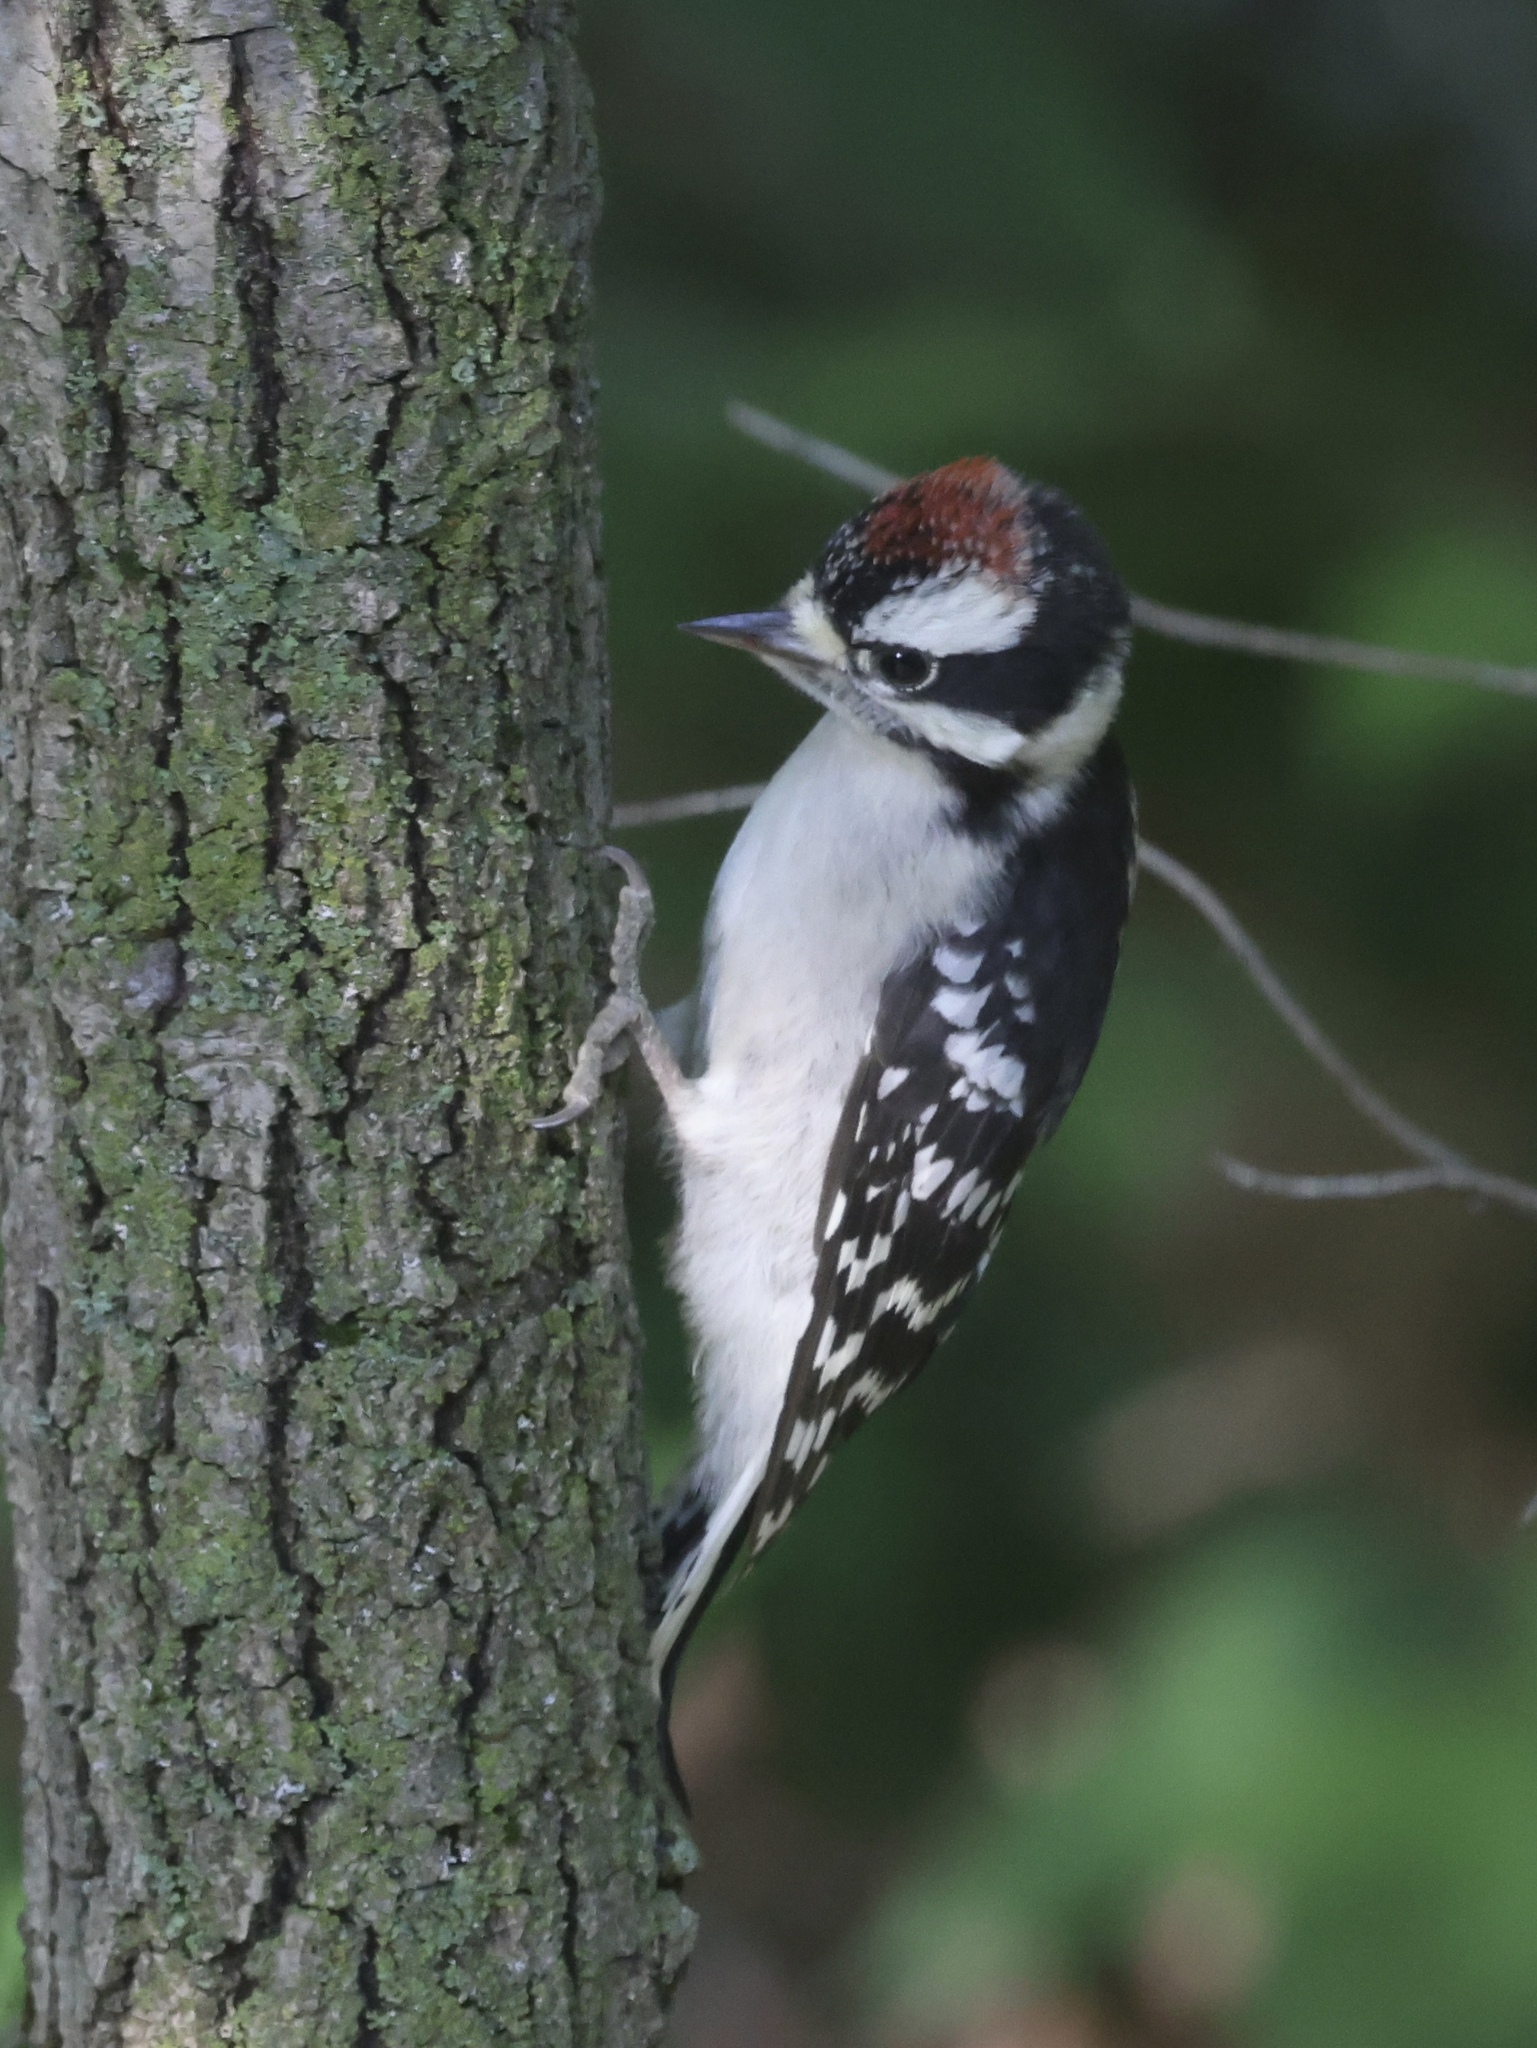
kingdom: Animalia
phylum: Chordata
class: Aves
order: Piciformes
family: Picidae
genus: Dryobates
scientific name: Dryobates pubescens
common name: Downy woodpecker
